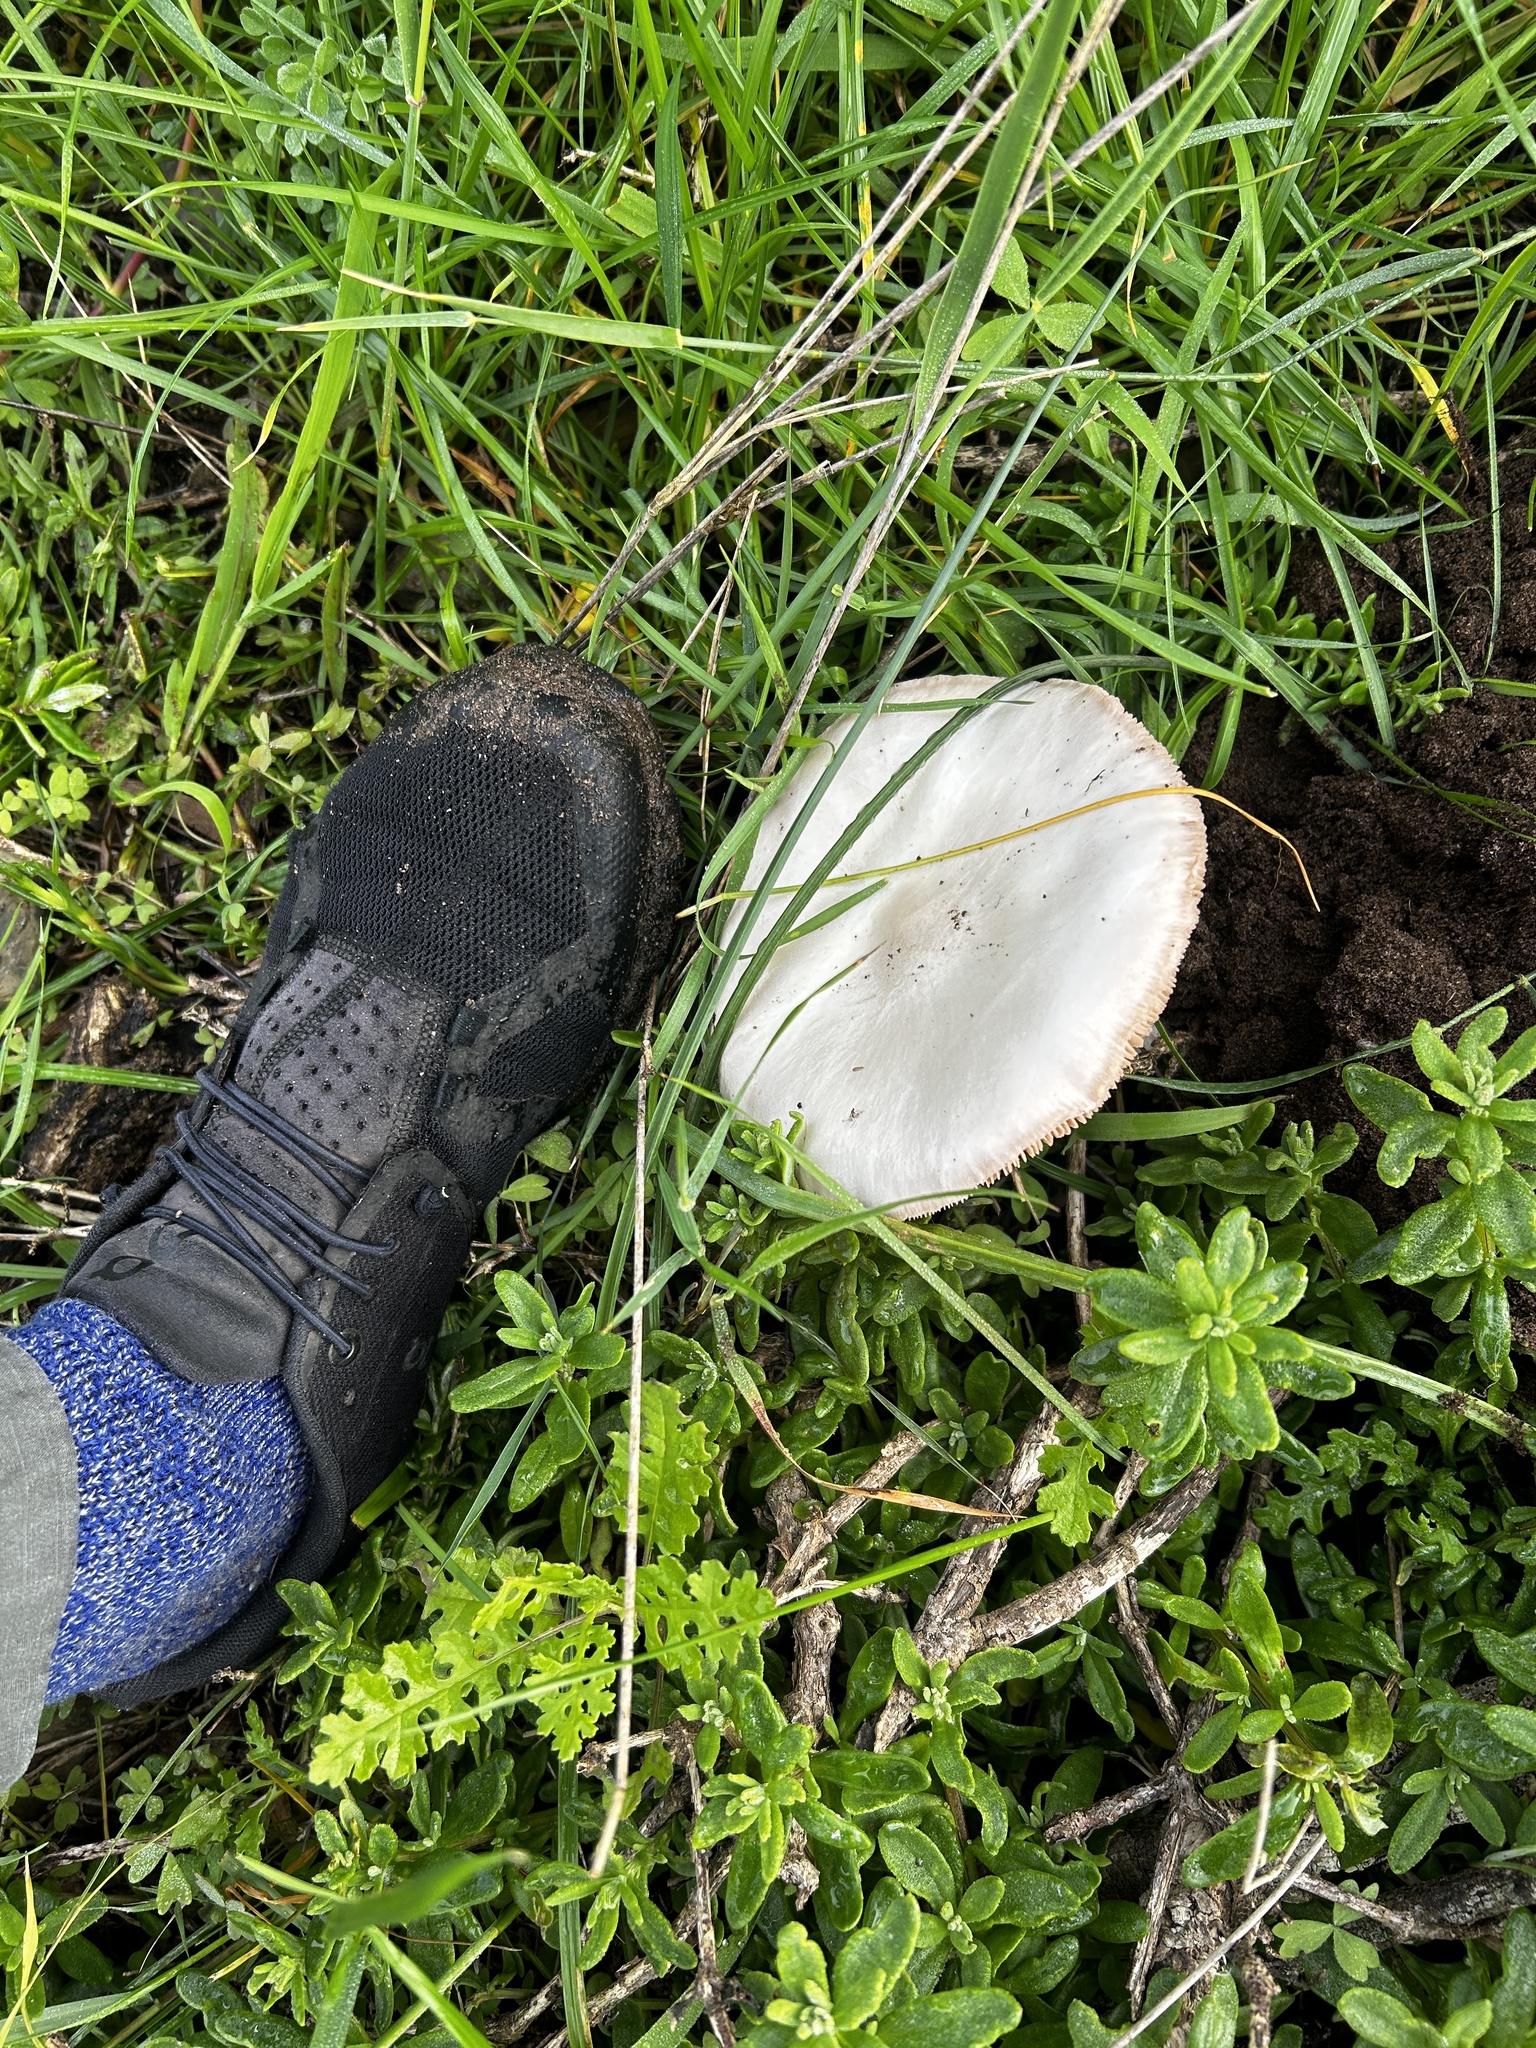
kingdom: Fungi
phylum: Basidiomycota
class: Agaricomycetes
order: Agaricales
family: Pluteaceae
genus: Volvopluteus
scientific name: Volvopluteus gloiocephalus
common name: Stubble rosegill
